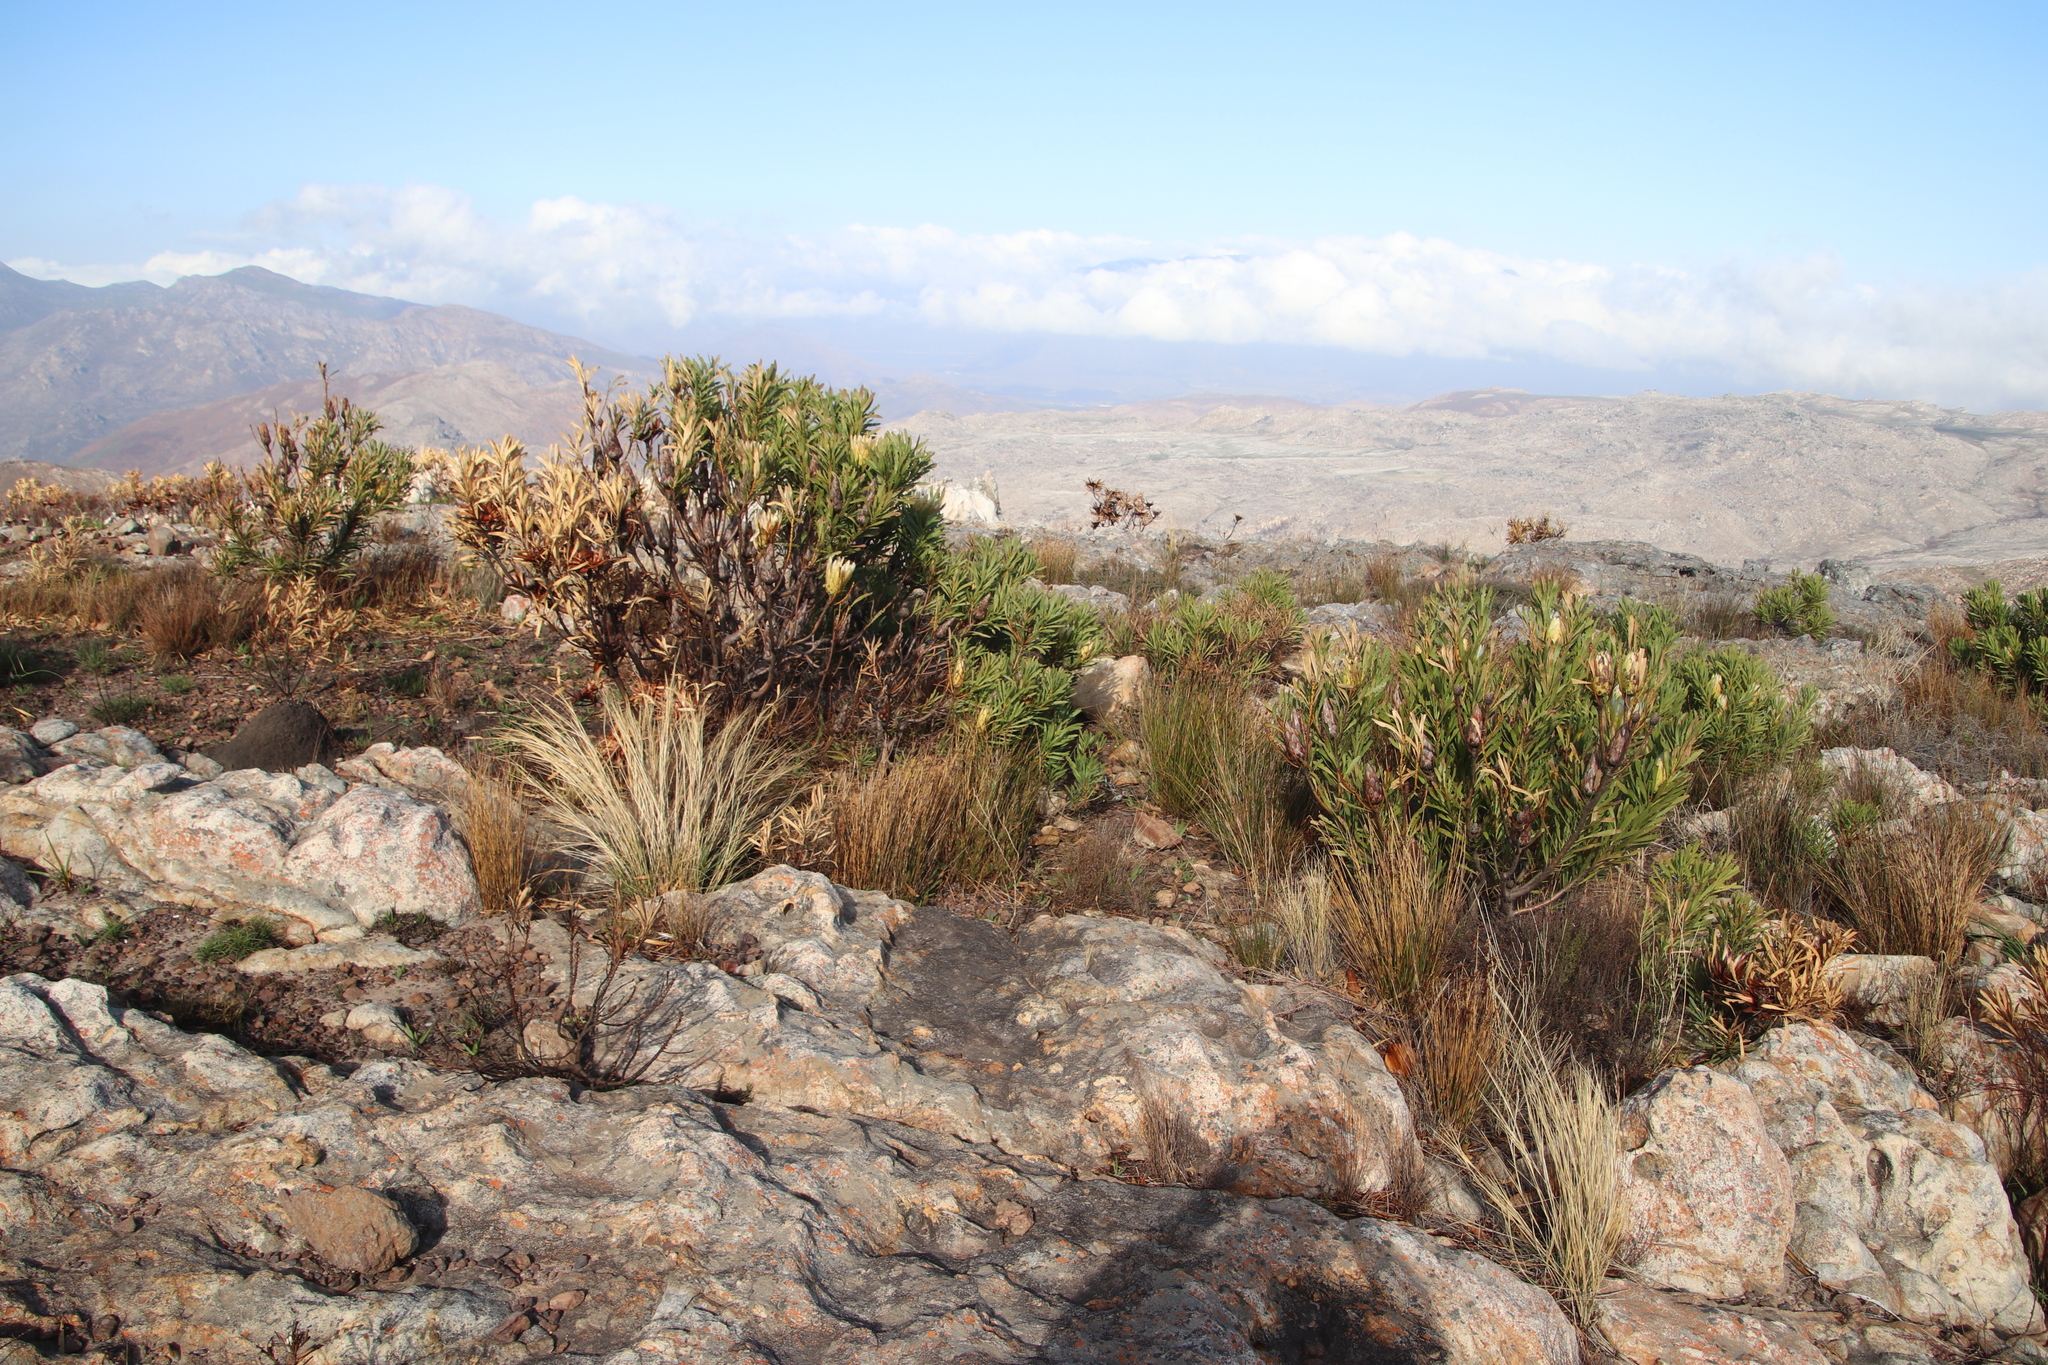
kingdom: Plantae
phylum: Tracheophyta
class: Magnoliopsida
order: Proteales
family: Proteaceae
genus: Protea
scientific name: Protea repens
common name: Sugarbush
